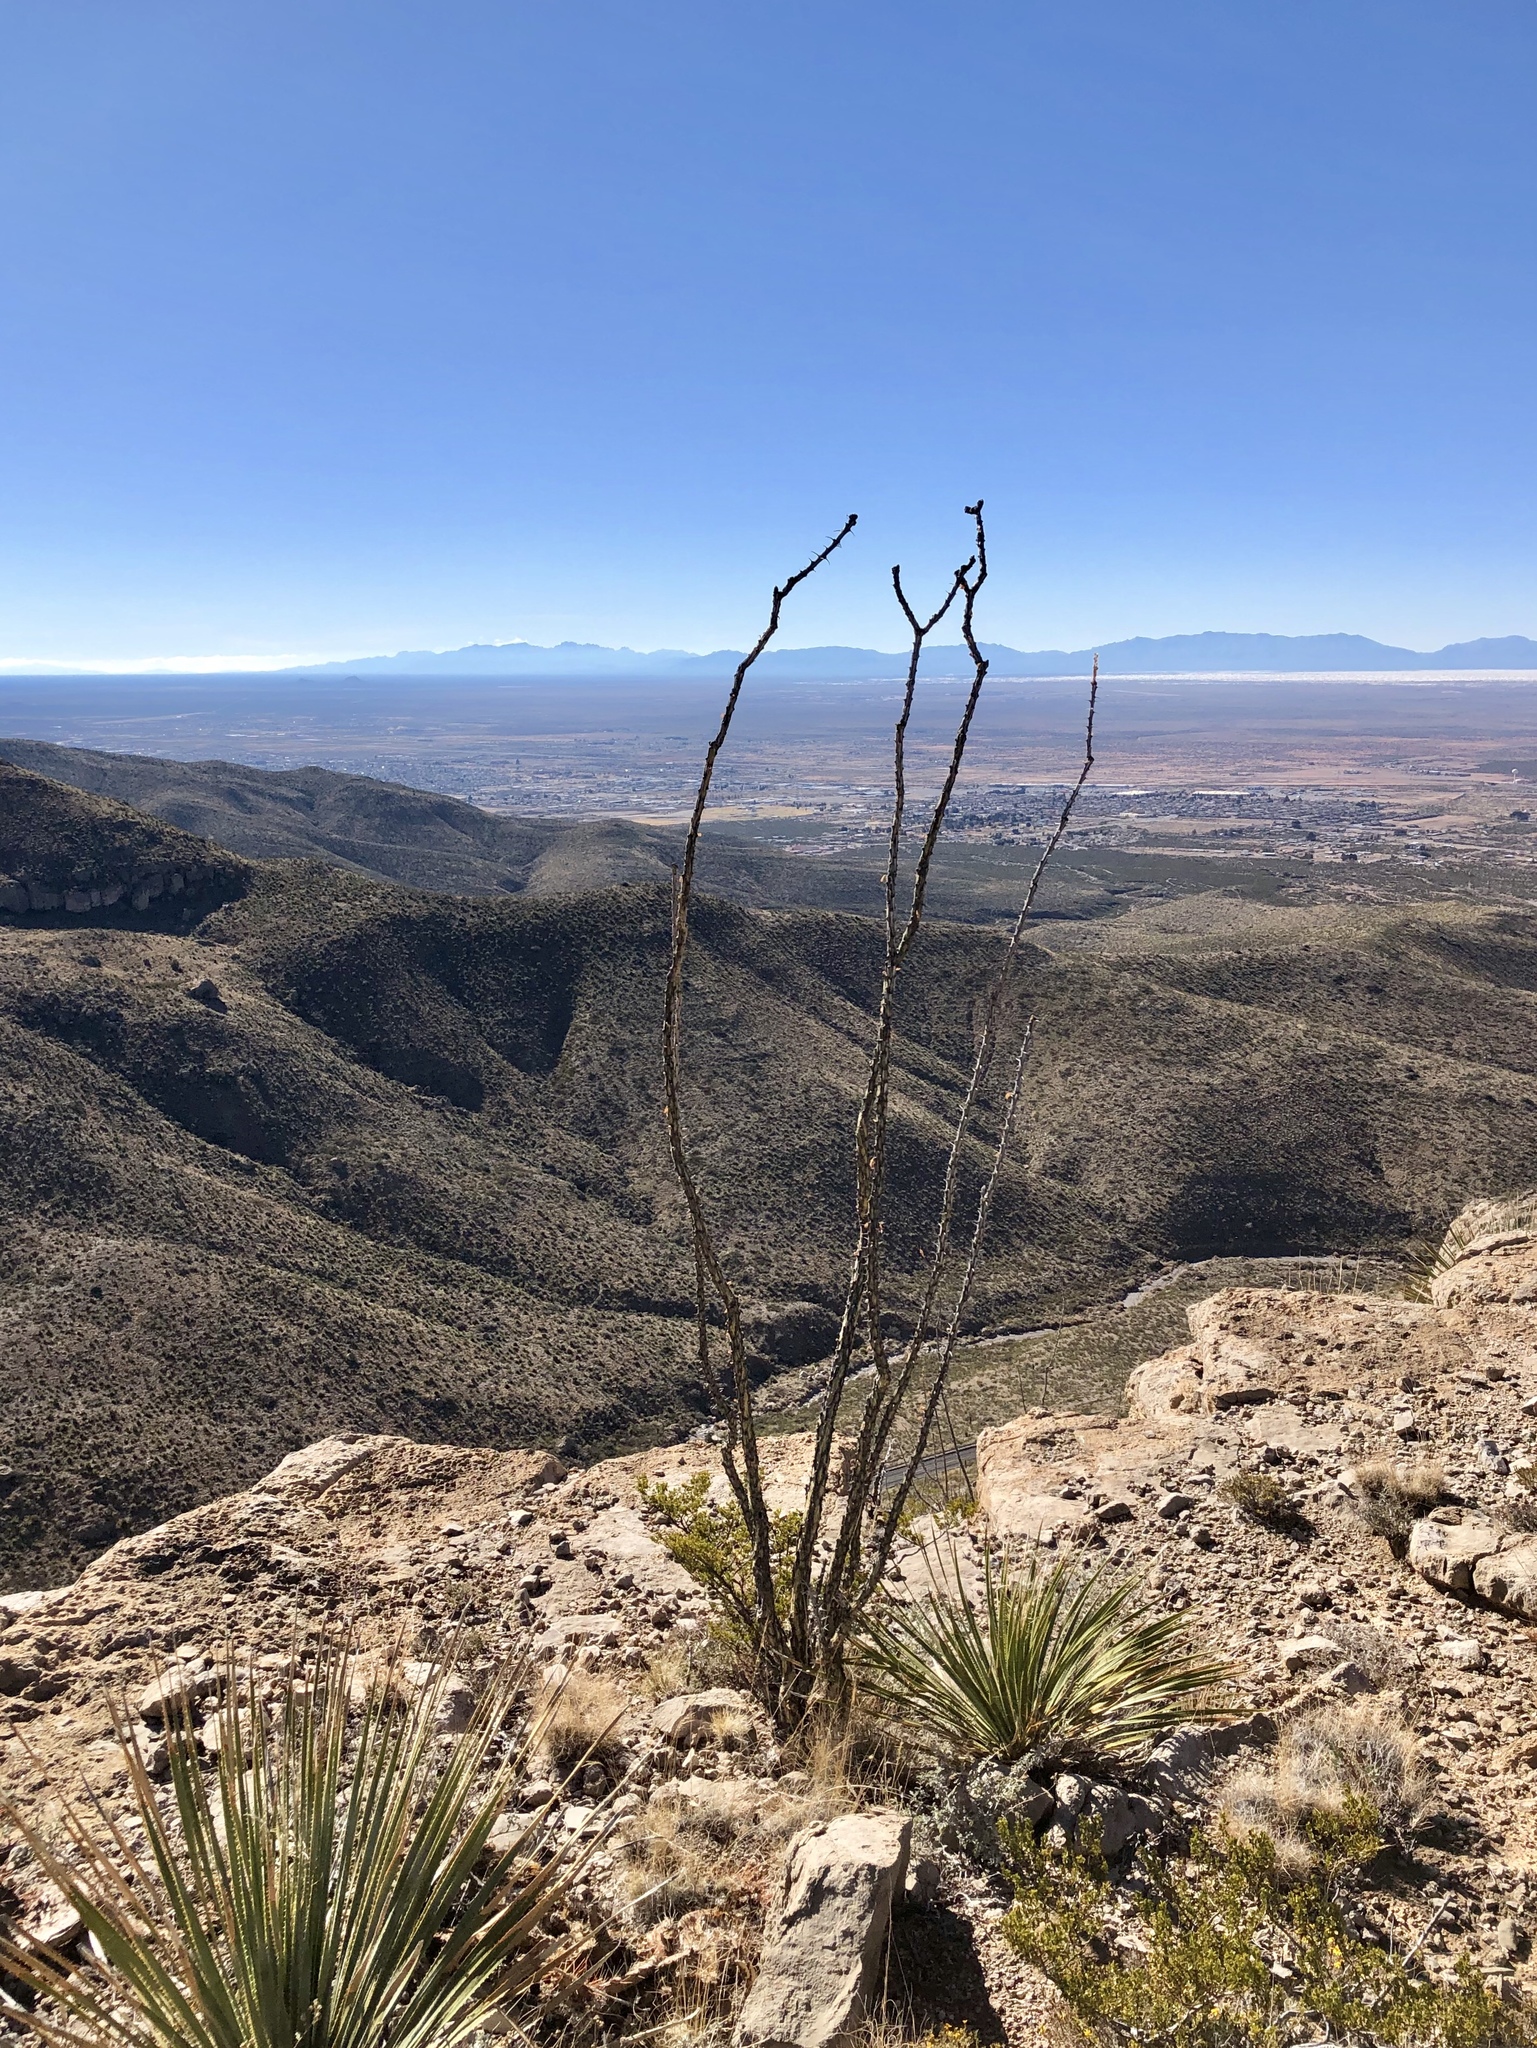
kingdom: Plantae
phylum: Tracheophyta
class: Magnoliopsida
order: Ericales
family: Fouquieriaceae
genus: Fouquieria
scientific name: Fouquieria splendens
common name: Vine-cactus
